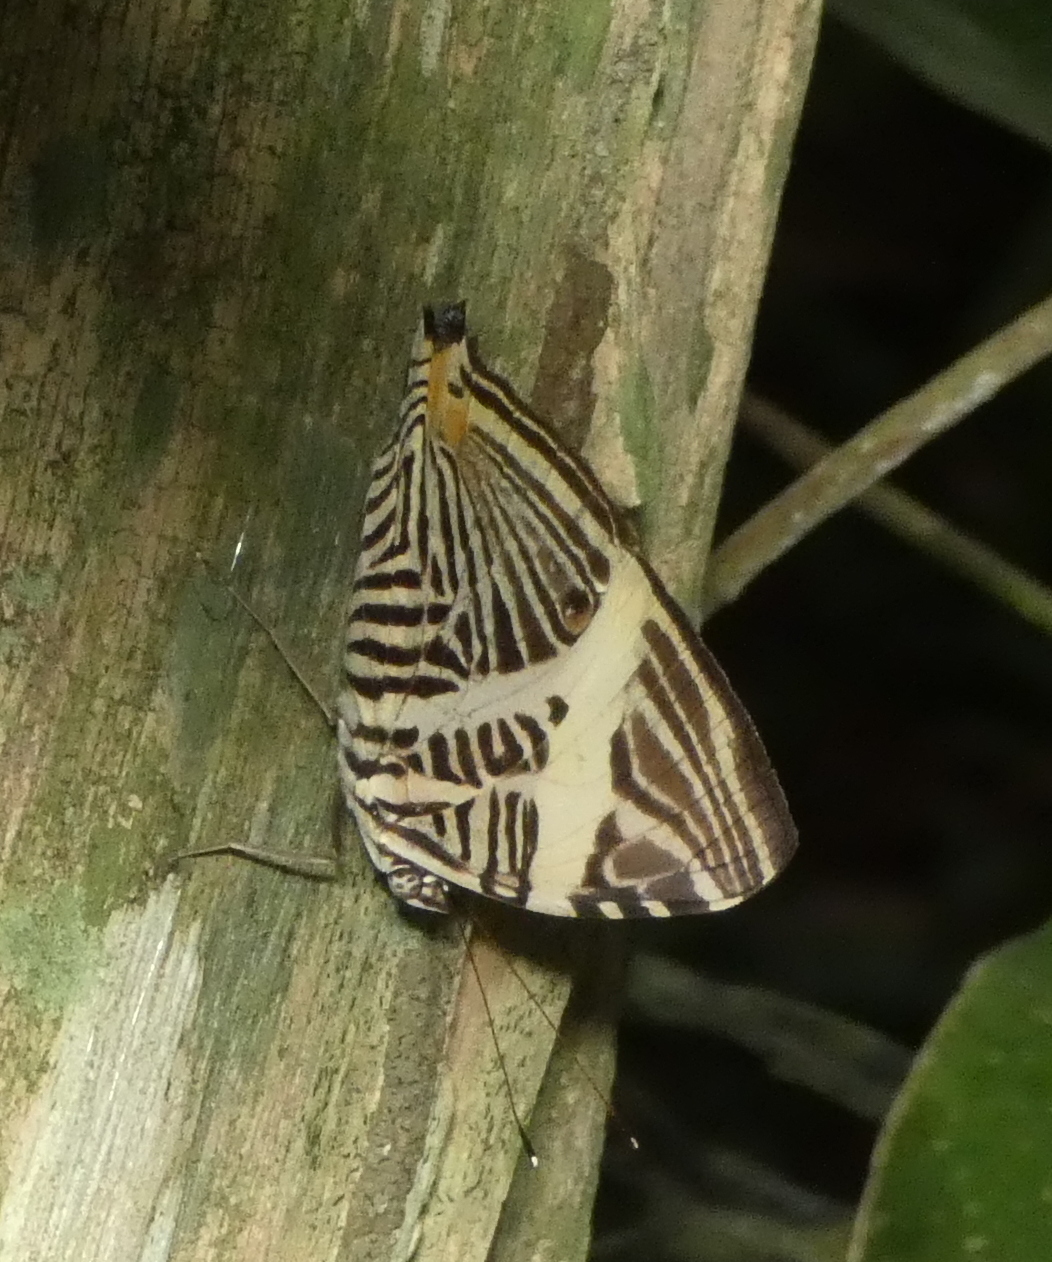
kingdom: Animalia
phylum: Arthropoda
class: Insecta
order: Lepidoptera
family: Nymphalidae
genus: Colobura
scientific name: Colobura dirce
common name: Dirce beauty
